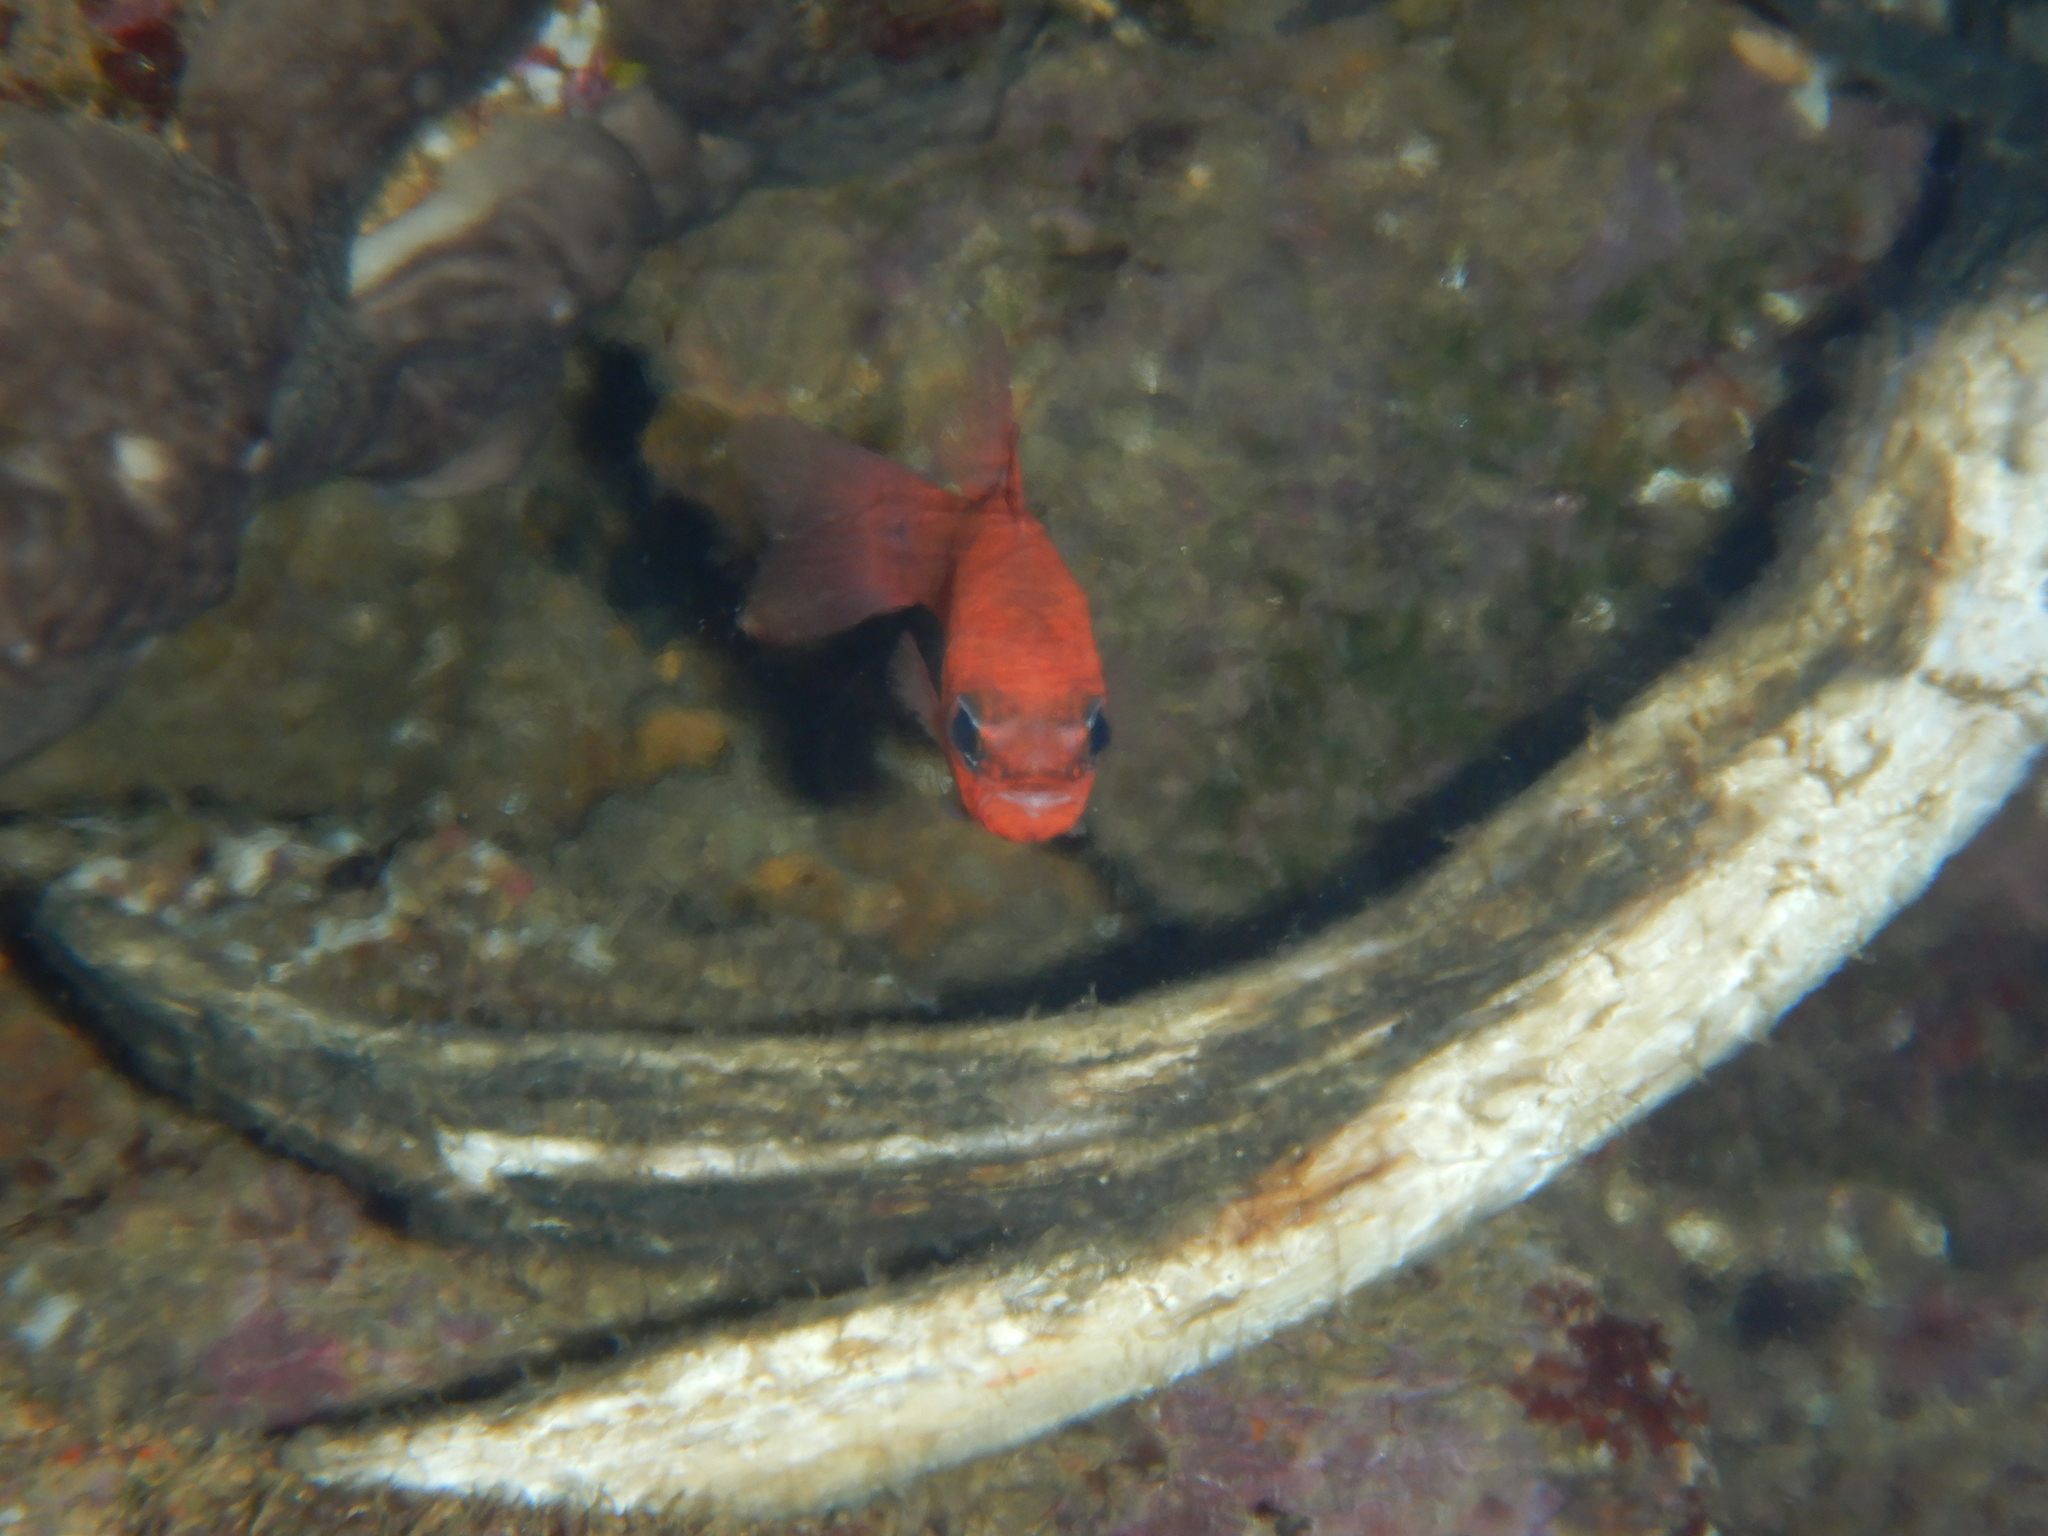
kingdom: Animalia
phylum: Chordata
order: Perciformes
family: Apogonidae
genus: Apogon
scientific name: Apogon imberbis
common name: Cardinal fish
